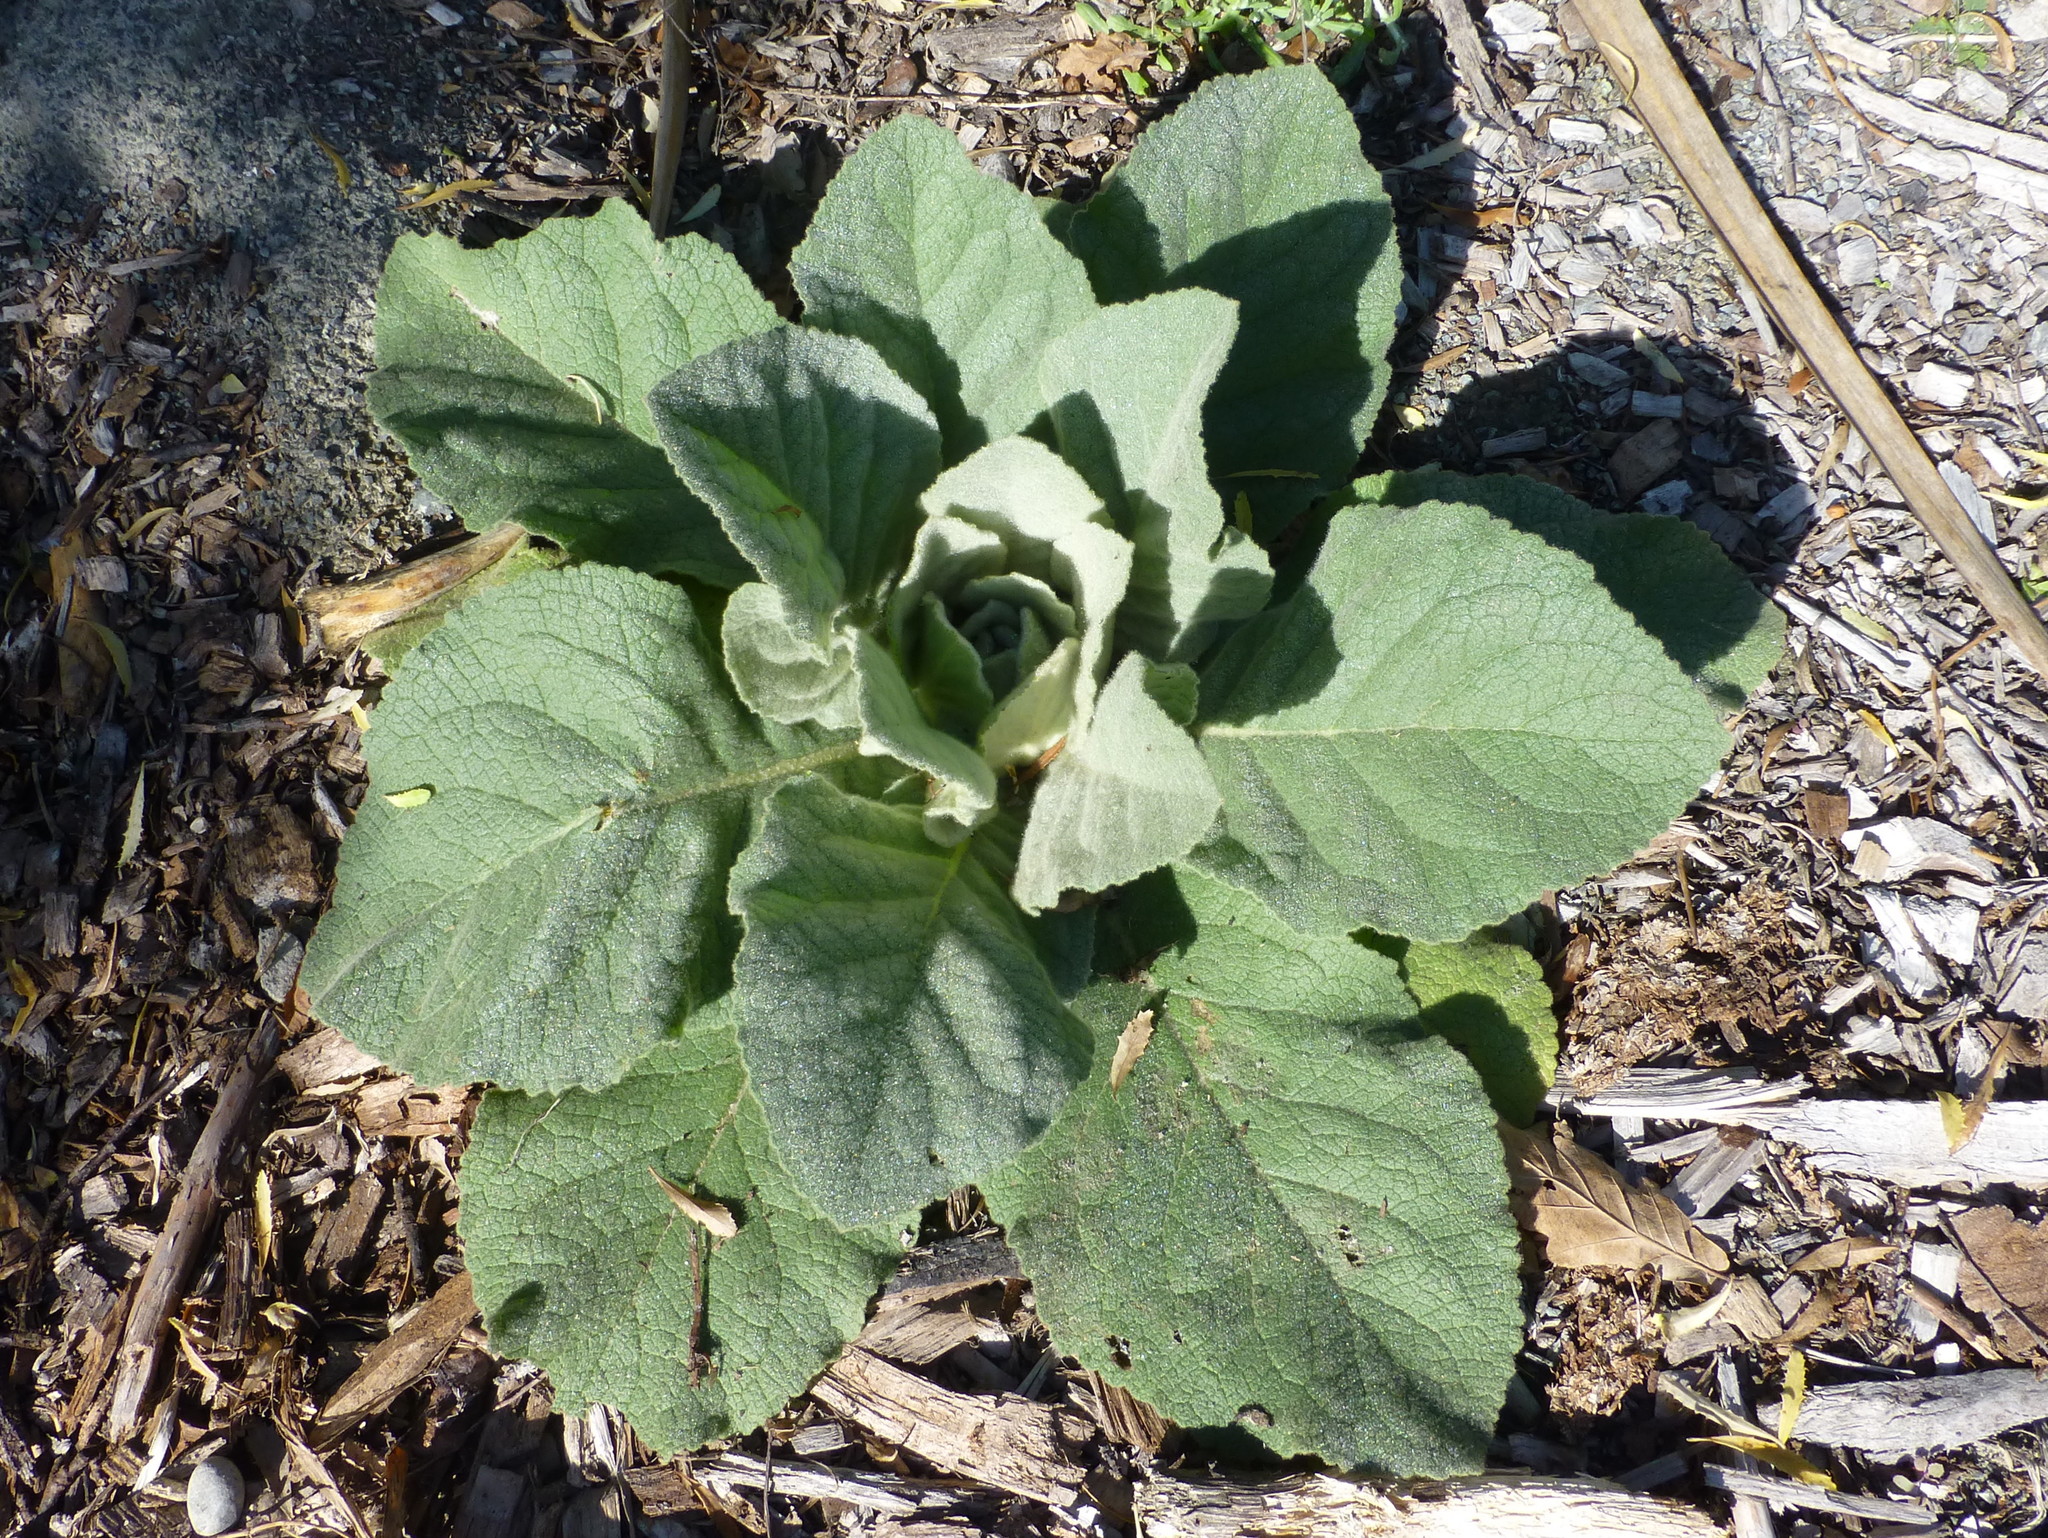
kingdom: Plantae
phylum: Tracheophyta
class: Magnoliopsida
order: Lamiales
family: Scrophulariaceae
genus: Verbascum
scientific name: Verbascum thapsus
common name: Common mullein
